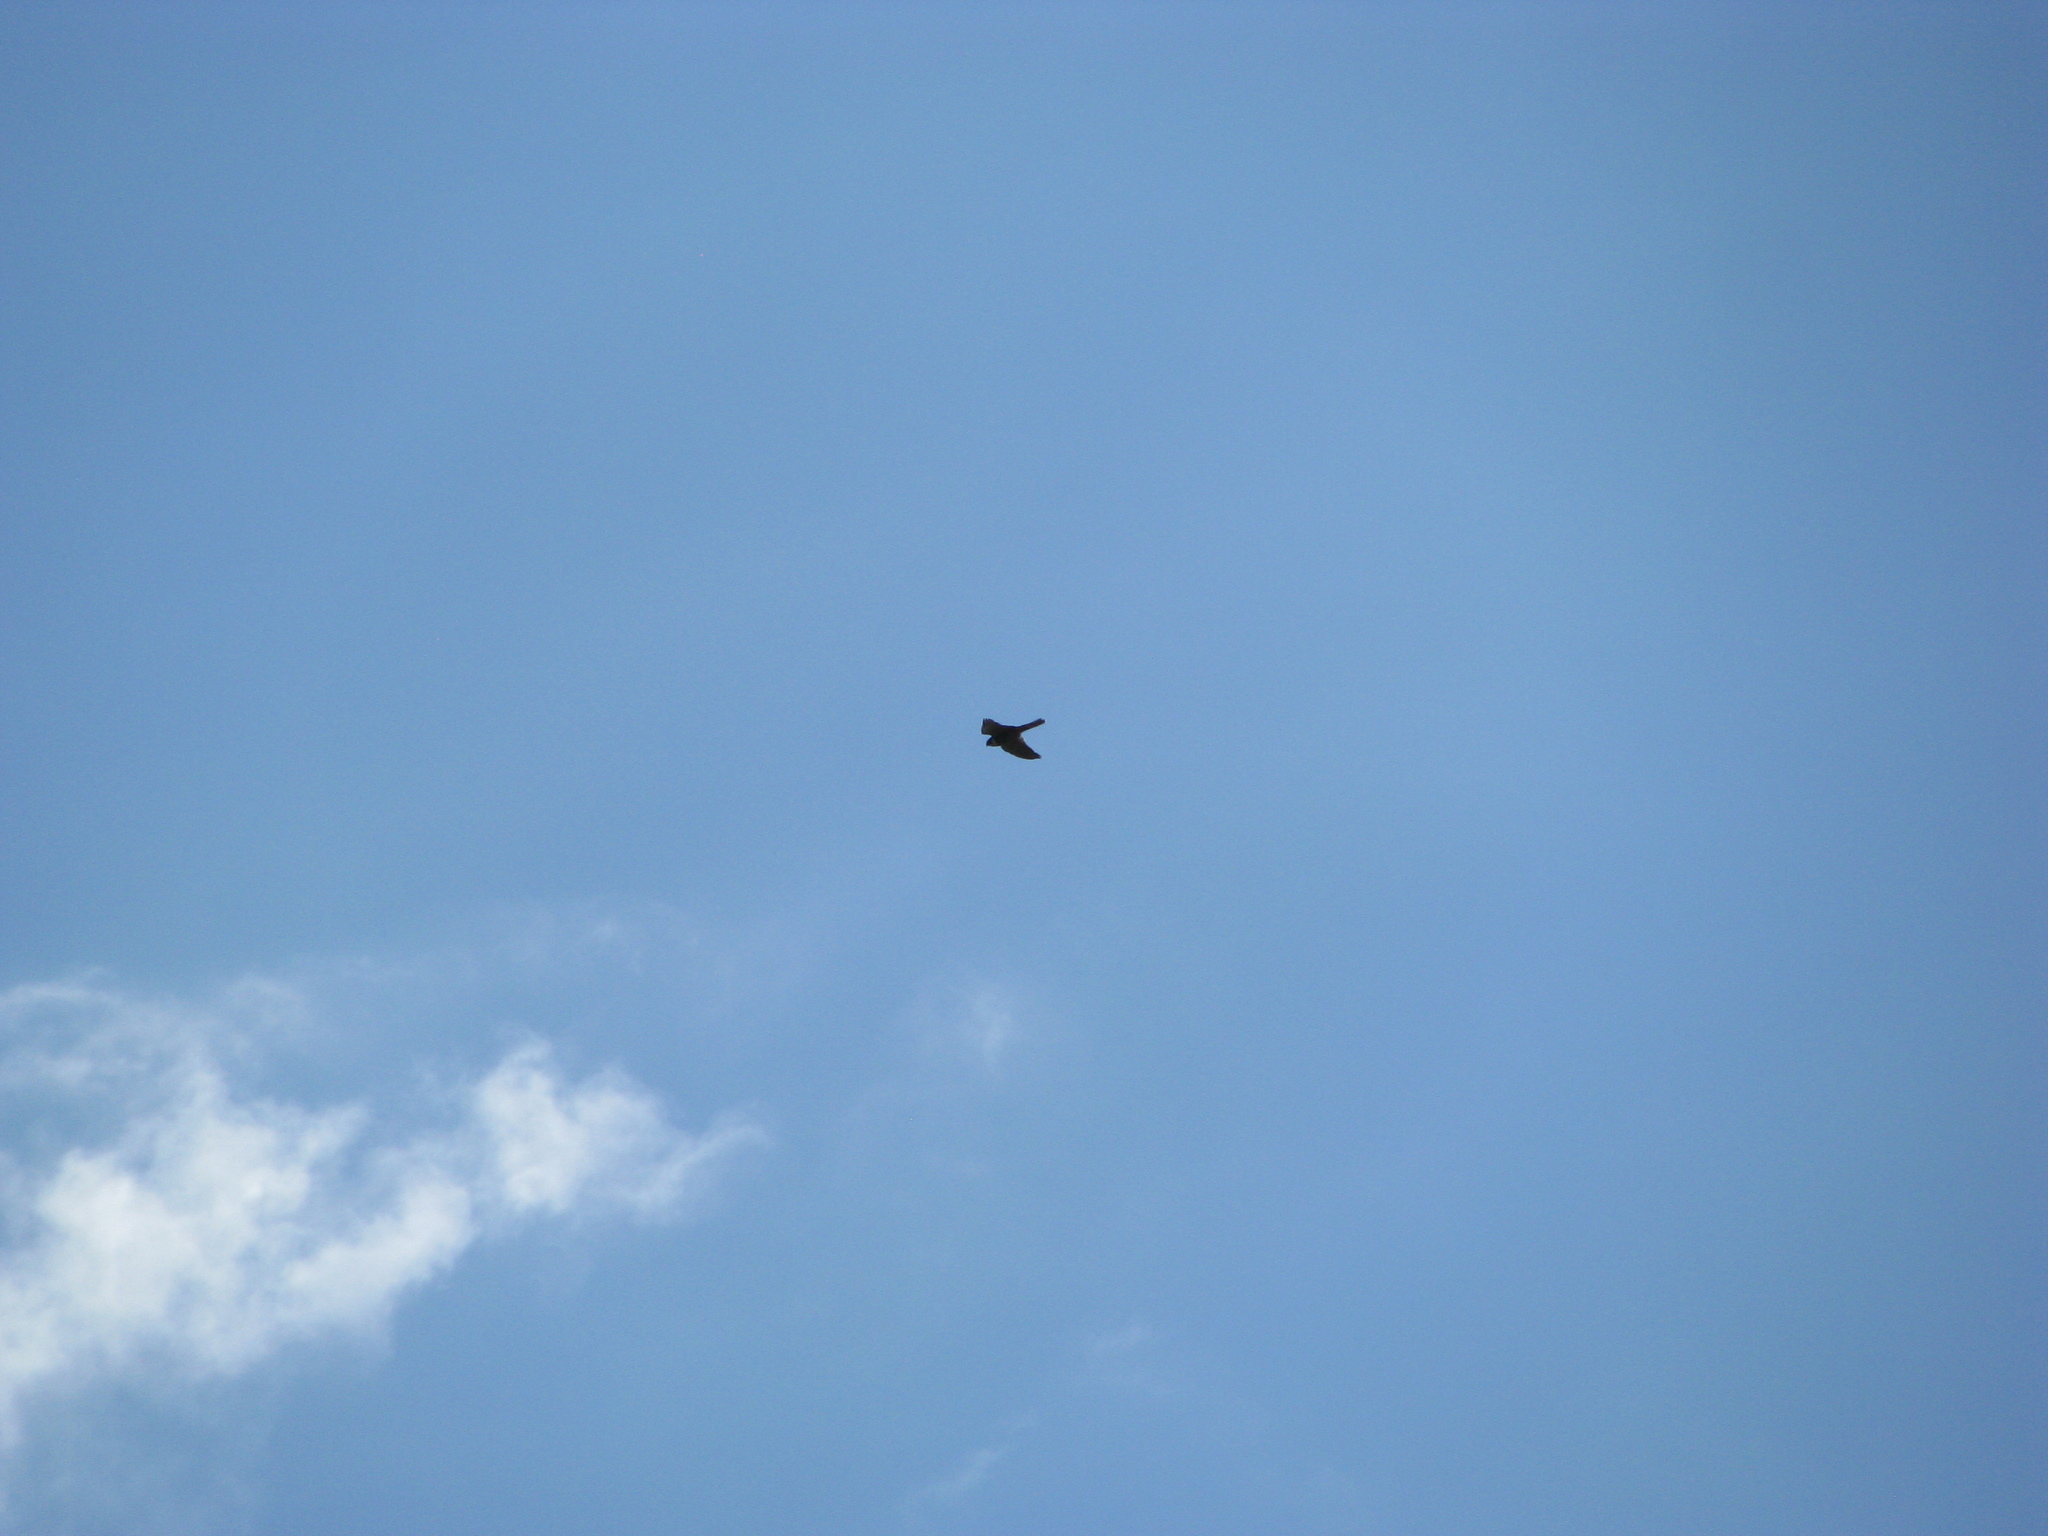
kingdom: Animalia
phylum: Chordata
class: Aves
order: Falconiformes
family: Falconidae
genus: Falco
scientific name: Falco subbuteo
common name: Eurasian hobby
